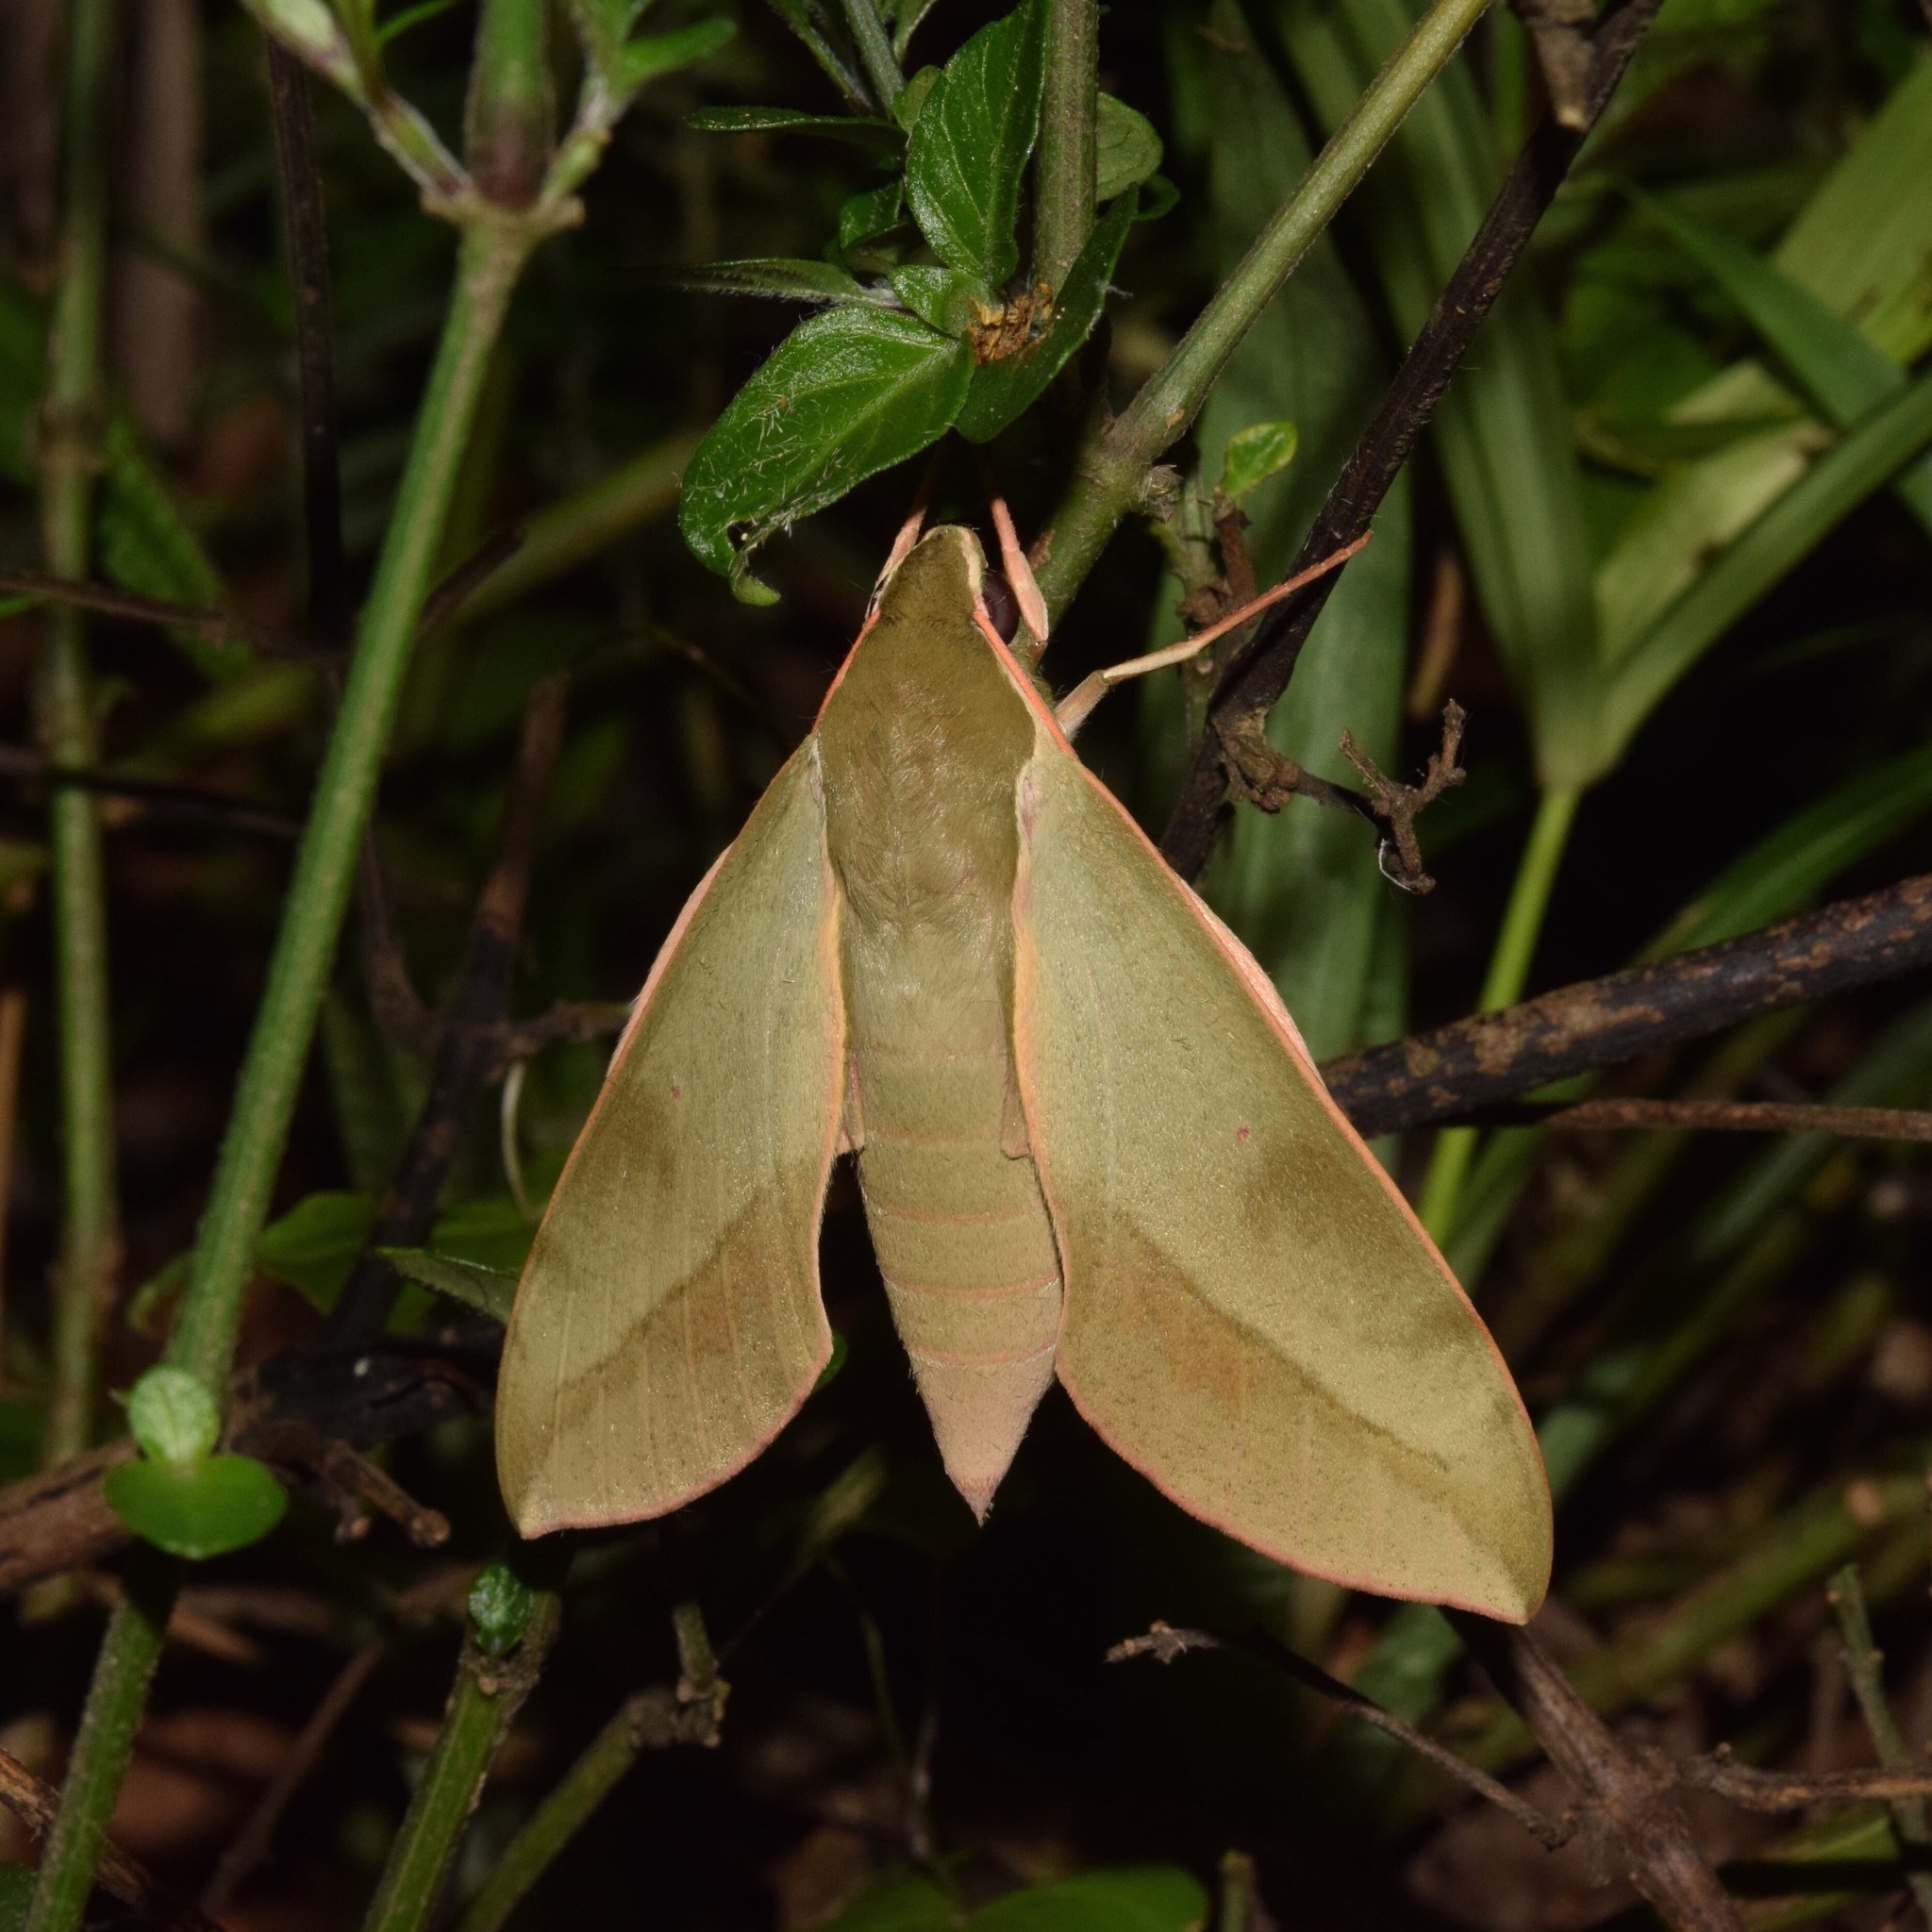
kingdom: Animalia
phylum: Arthropoda
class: Insecta
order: Lepidoptera
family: Sphingidae
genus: Theretra
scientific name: Theretra capensis
